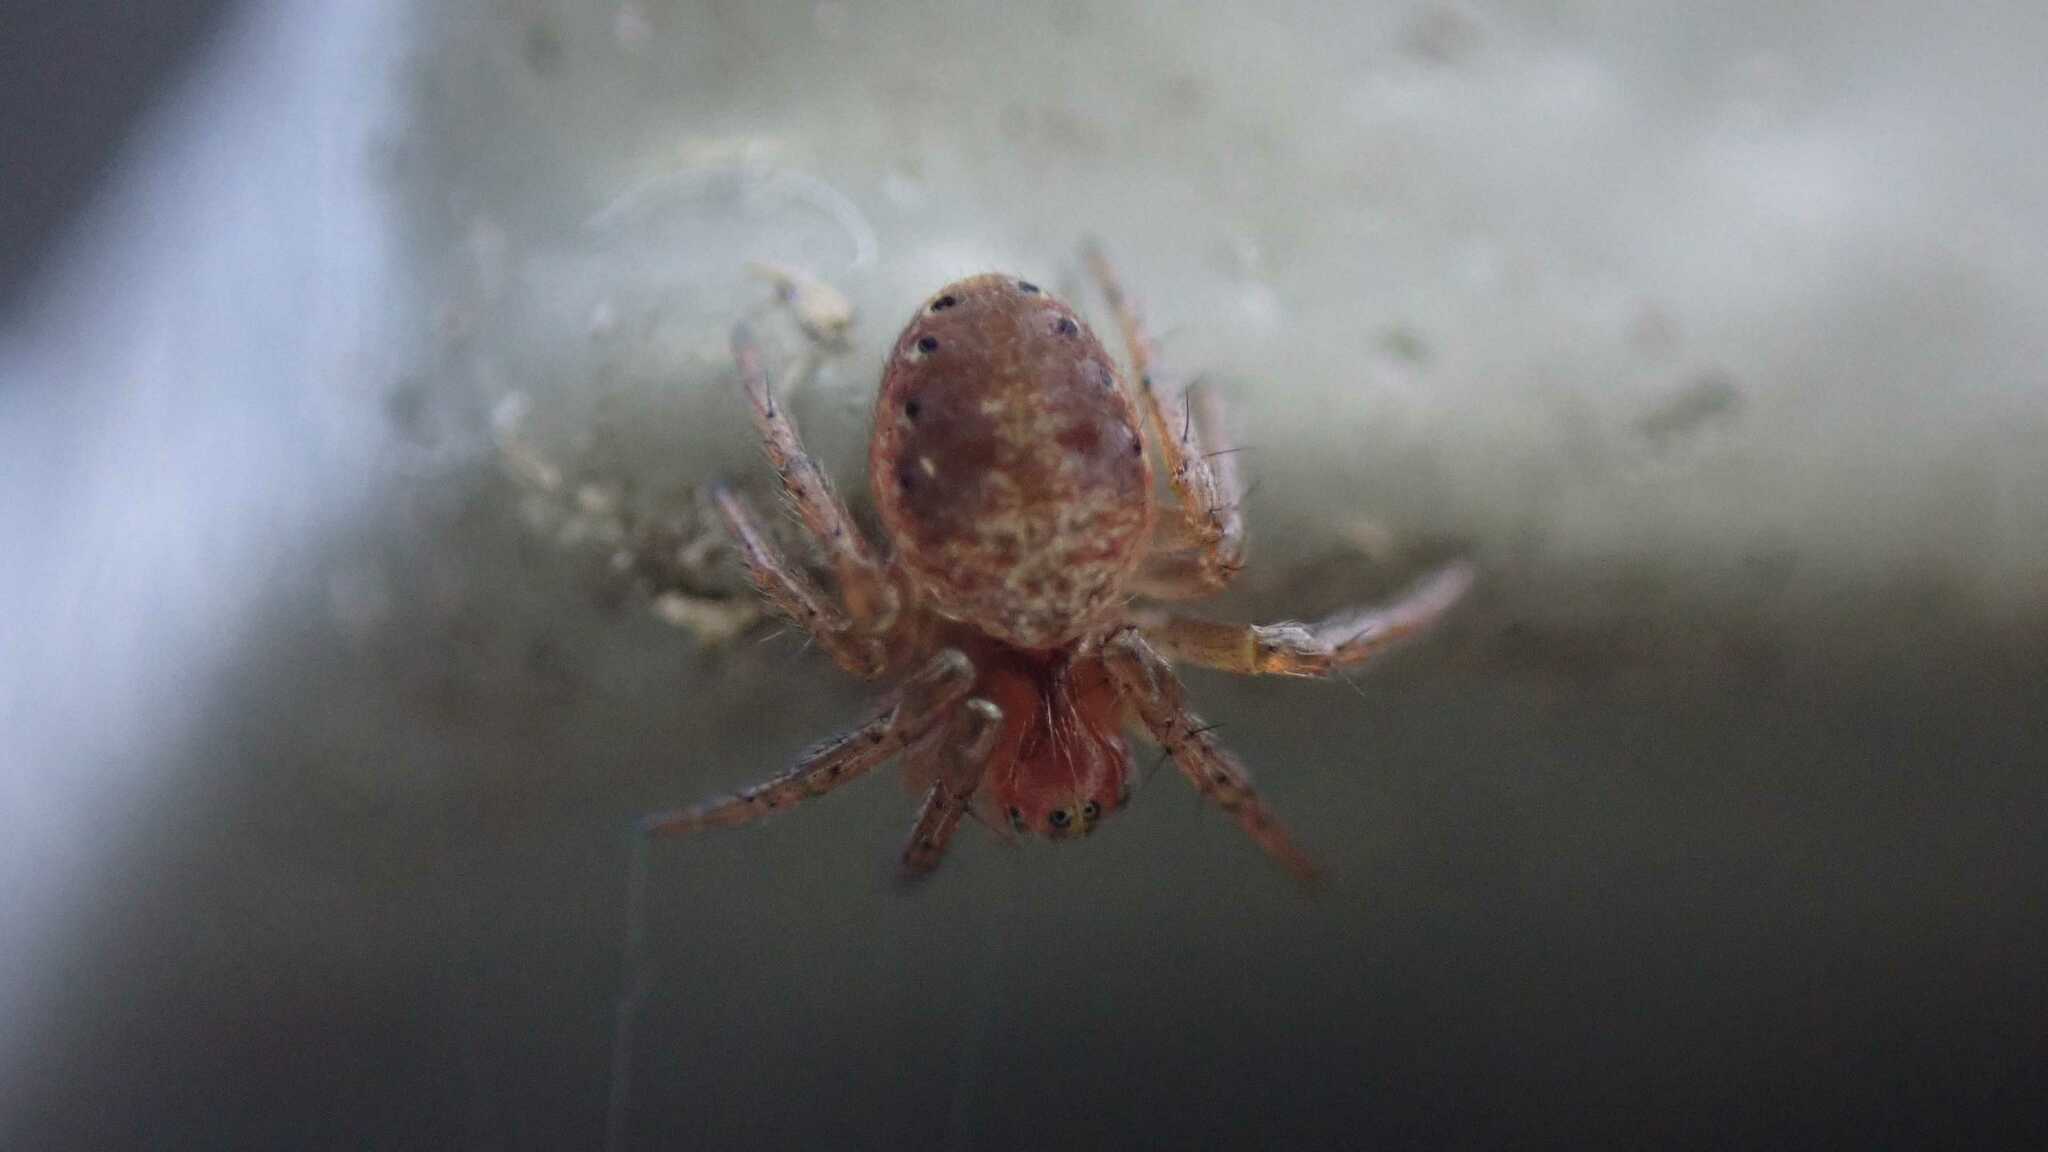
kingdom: Animalia
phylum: Arthropoda
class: Arachnida
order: Araneae
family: Araneidae
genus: Araniella
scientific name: Araniella
